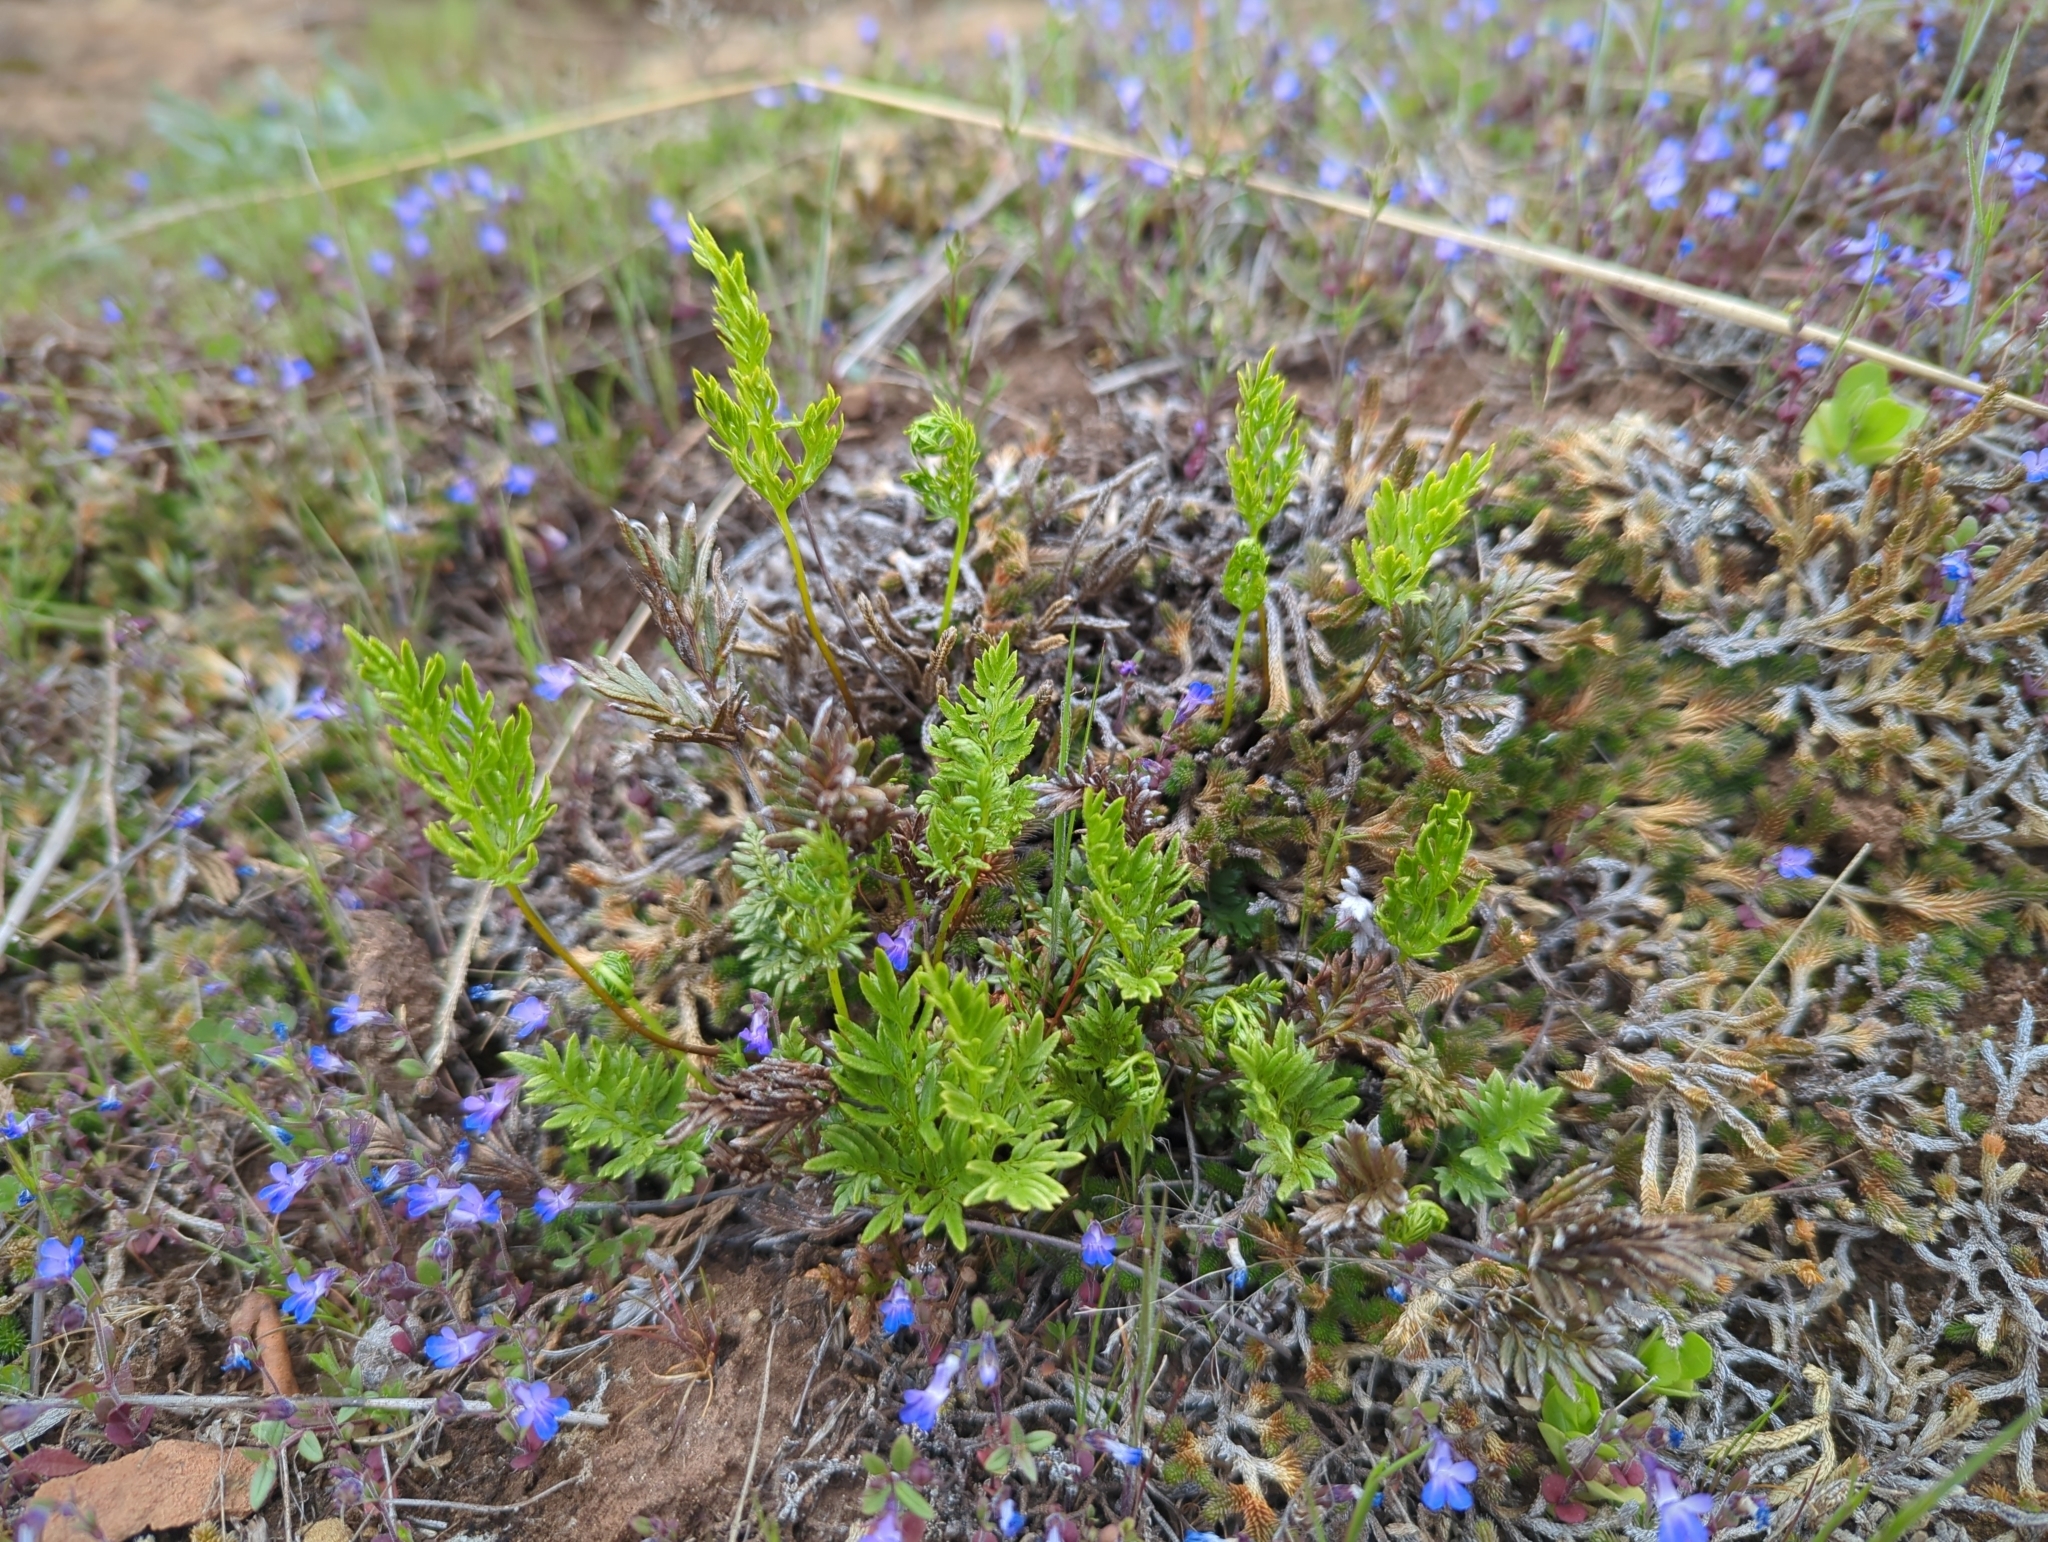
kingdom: Plantae
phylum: Tracheophyta
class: Polypodiopsida
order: Polypodiales
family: Pteridaceae
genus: Aspidotis
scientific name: Aspidotis densa
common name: Indian's dream
